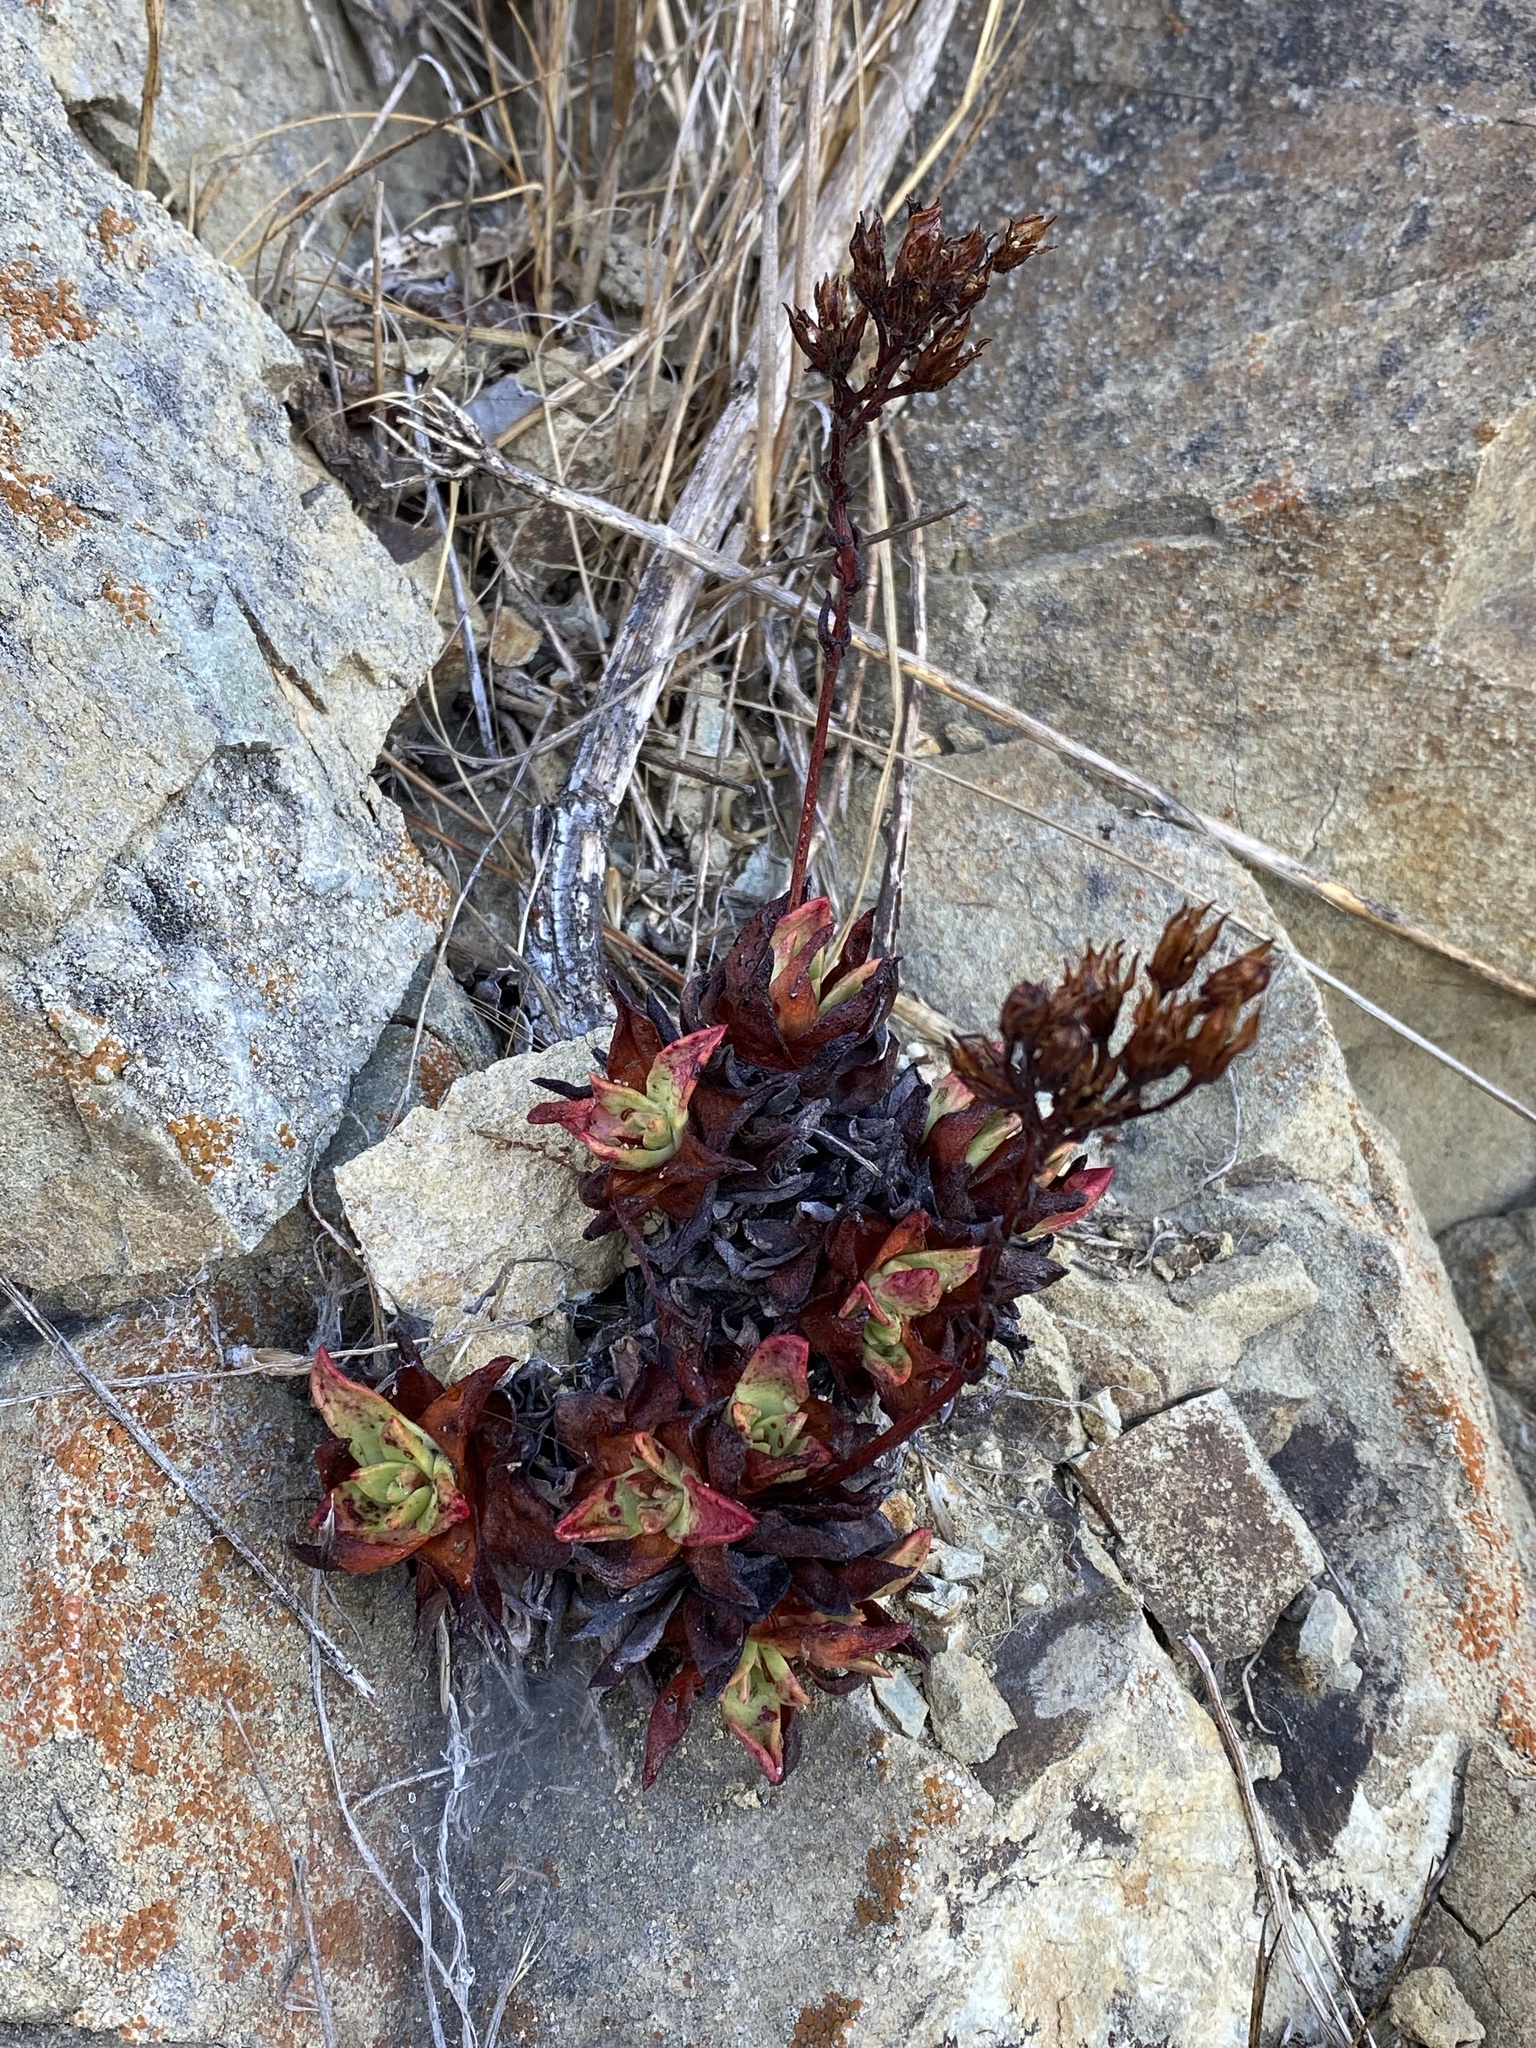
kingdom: Plantae
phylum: Tracheophyta
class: Magnoliopsida
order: Saxifragales
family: Crassulaceae
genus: Dudleya
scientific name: Dudleya farinosa
